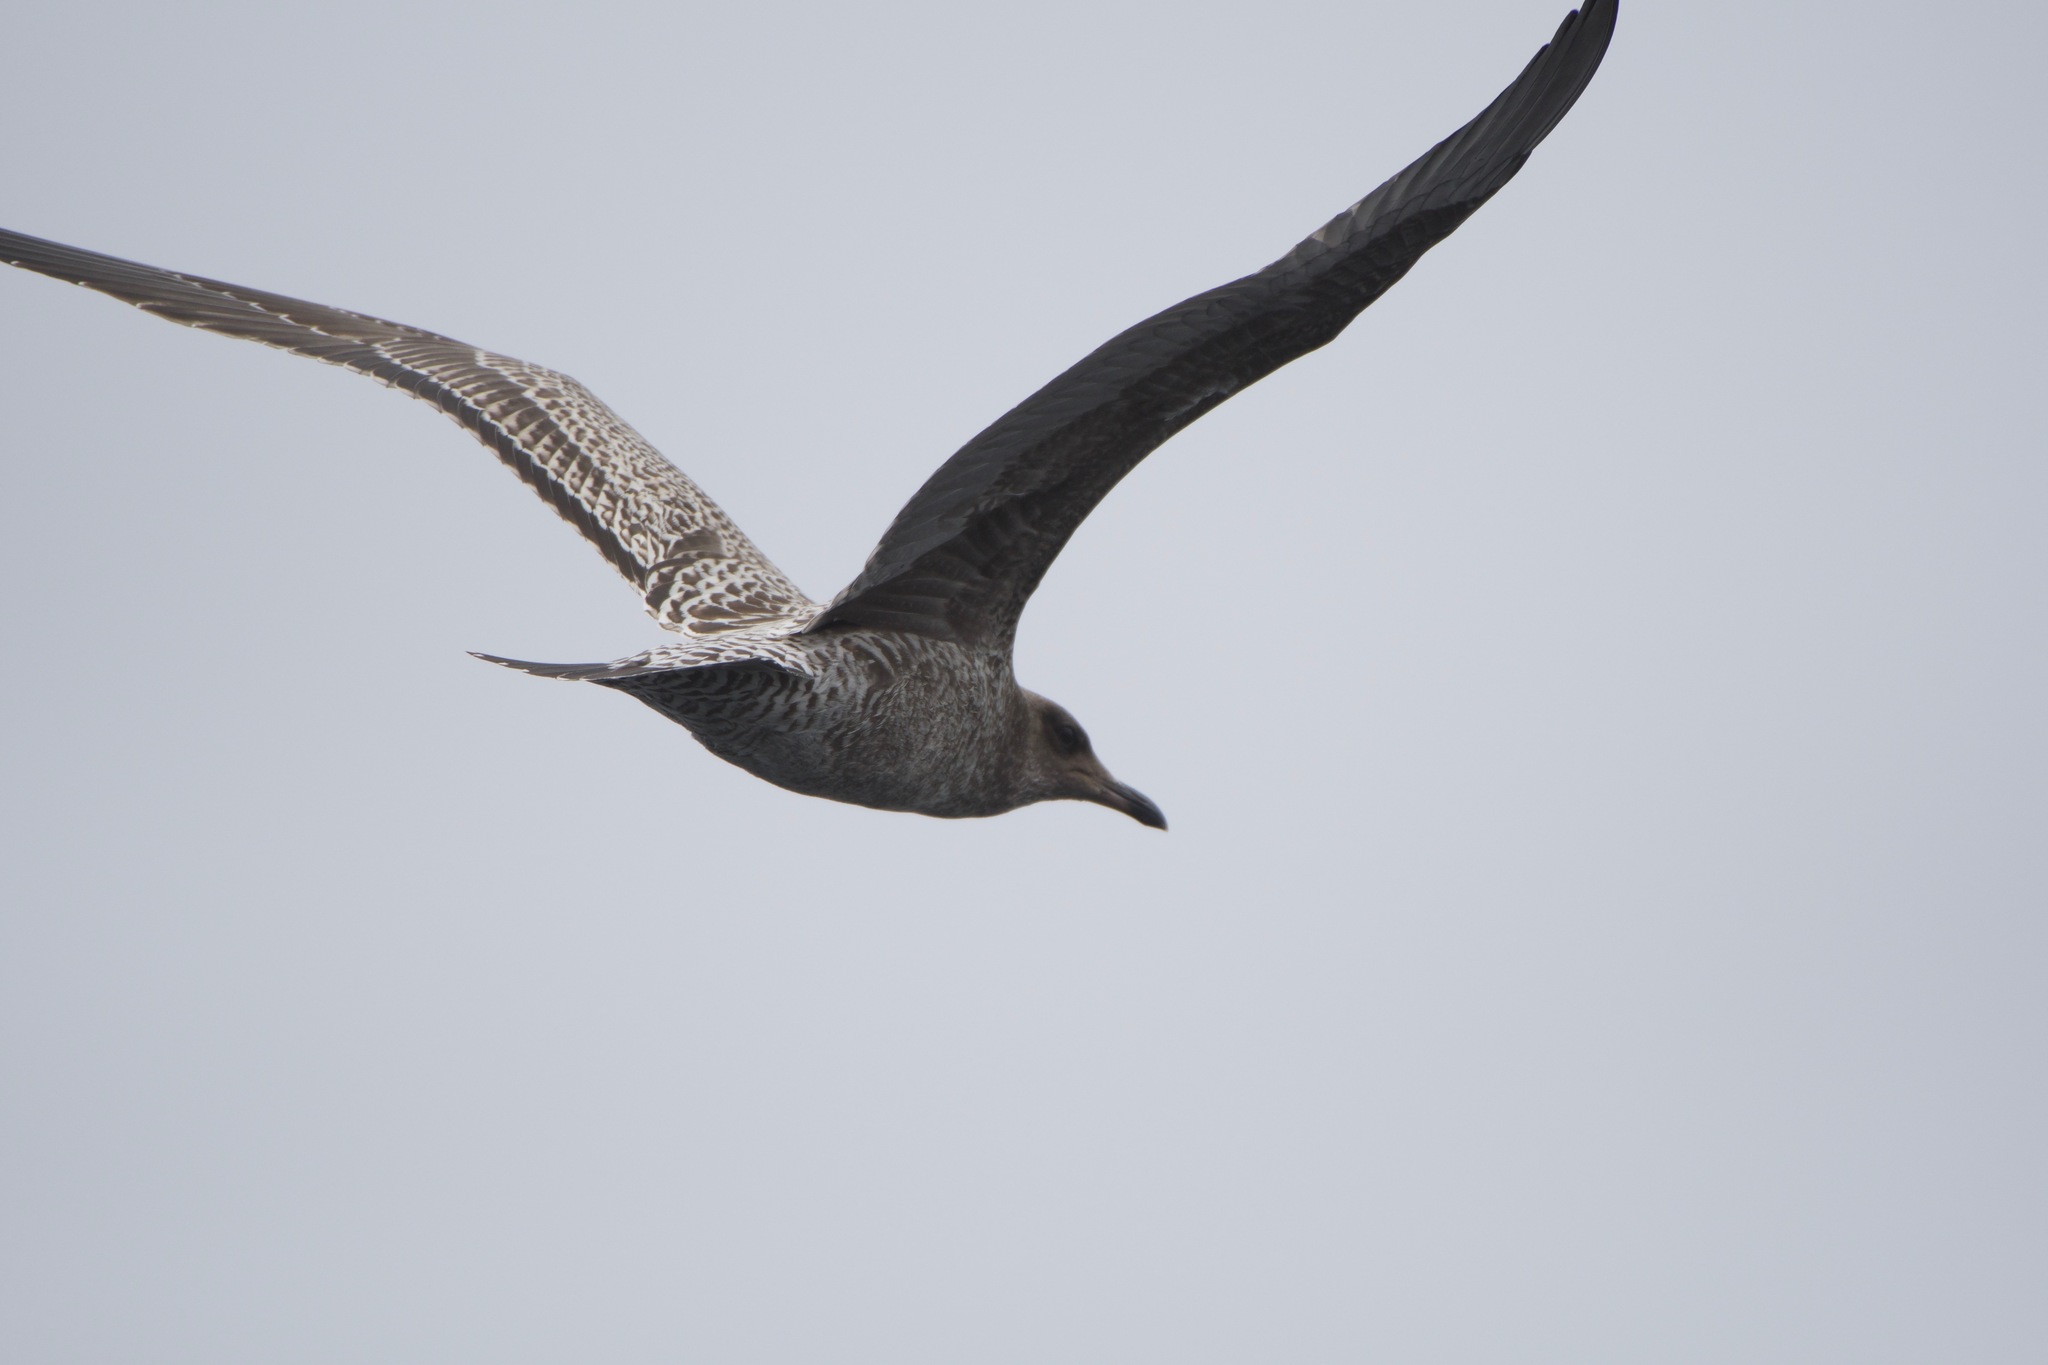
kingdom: Animalia
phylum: Chordata
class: Aves
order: Charadriiformes
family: Laridae
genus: Larus
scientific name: Larus californicus
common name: California gull
